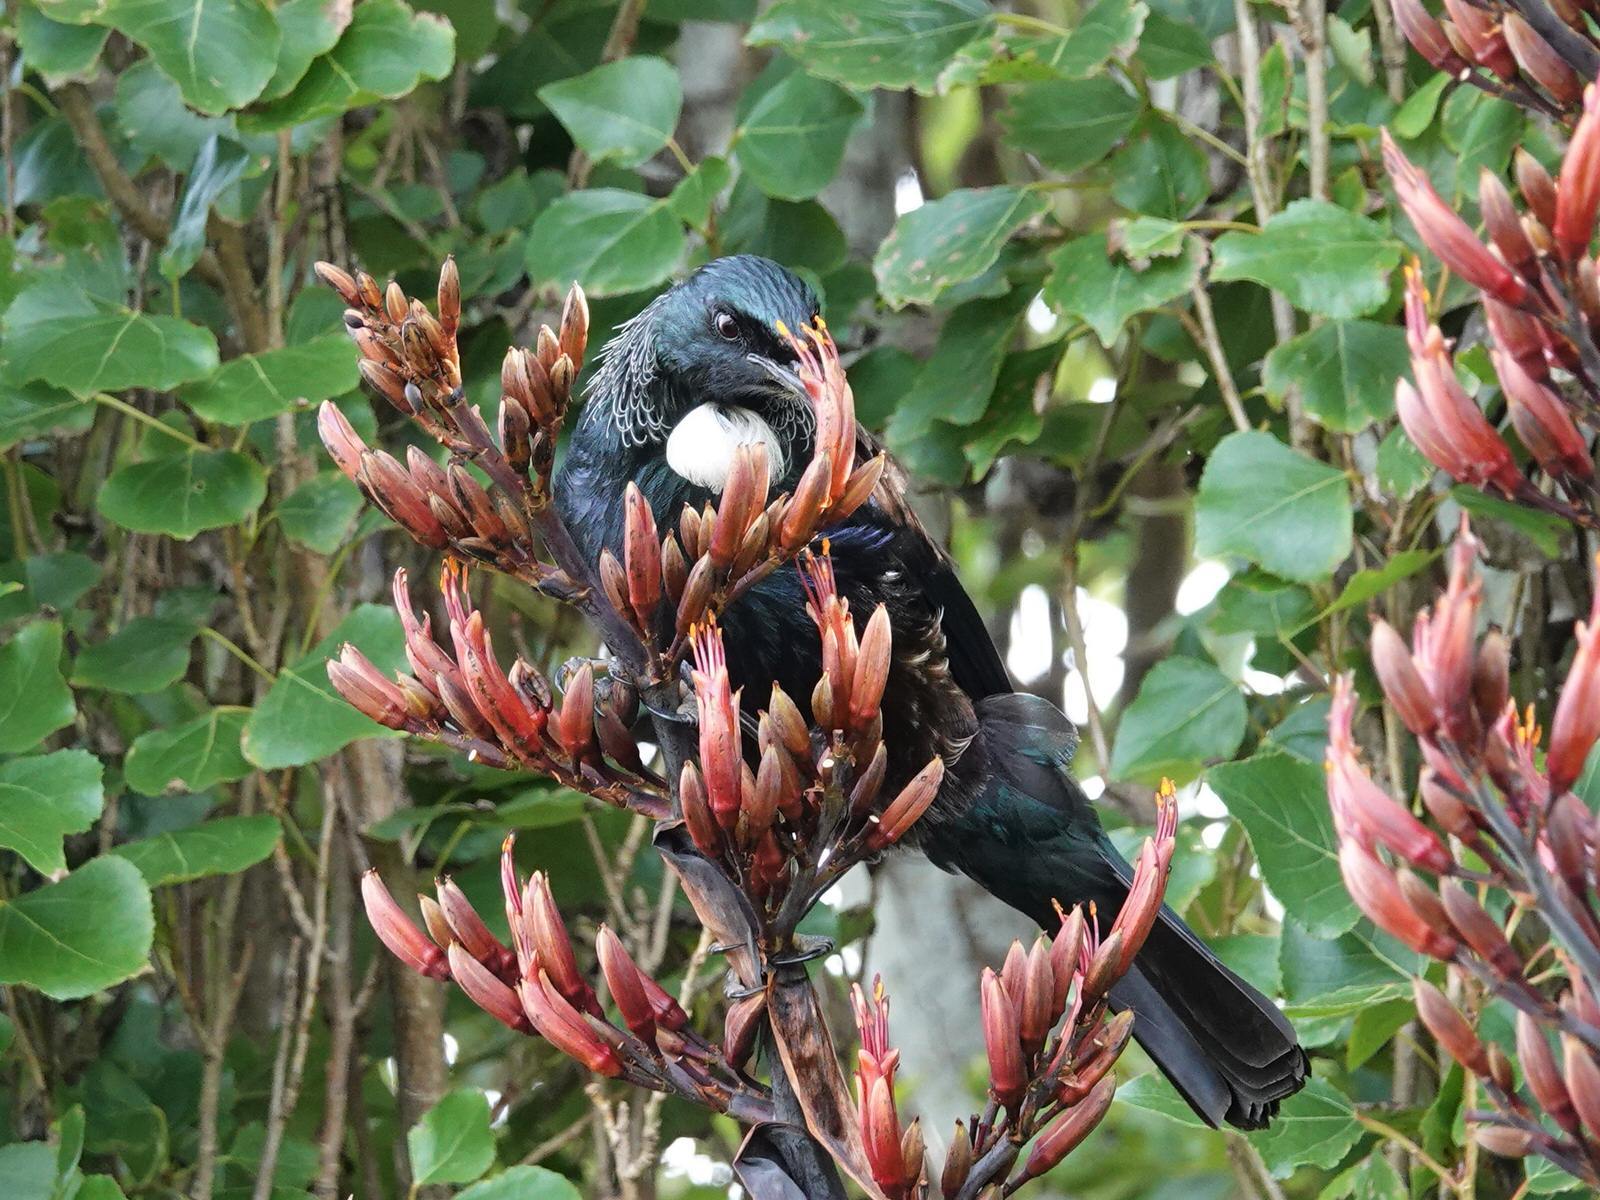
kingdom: Animalia
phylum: Chordata
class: Aves
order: Passeriformes
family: Meliphagidae
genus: Prosthemadera
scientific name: Prosthemadera novaeseelandiae
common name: Tui
